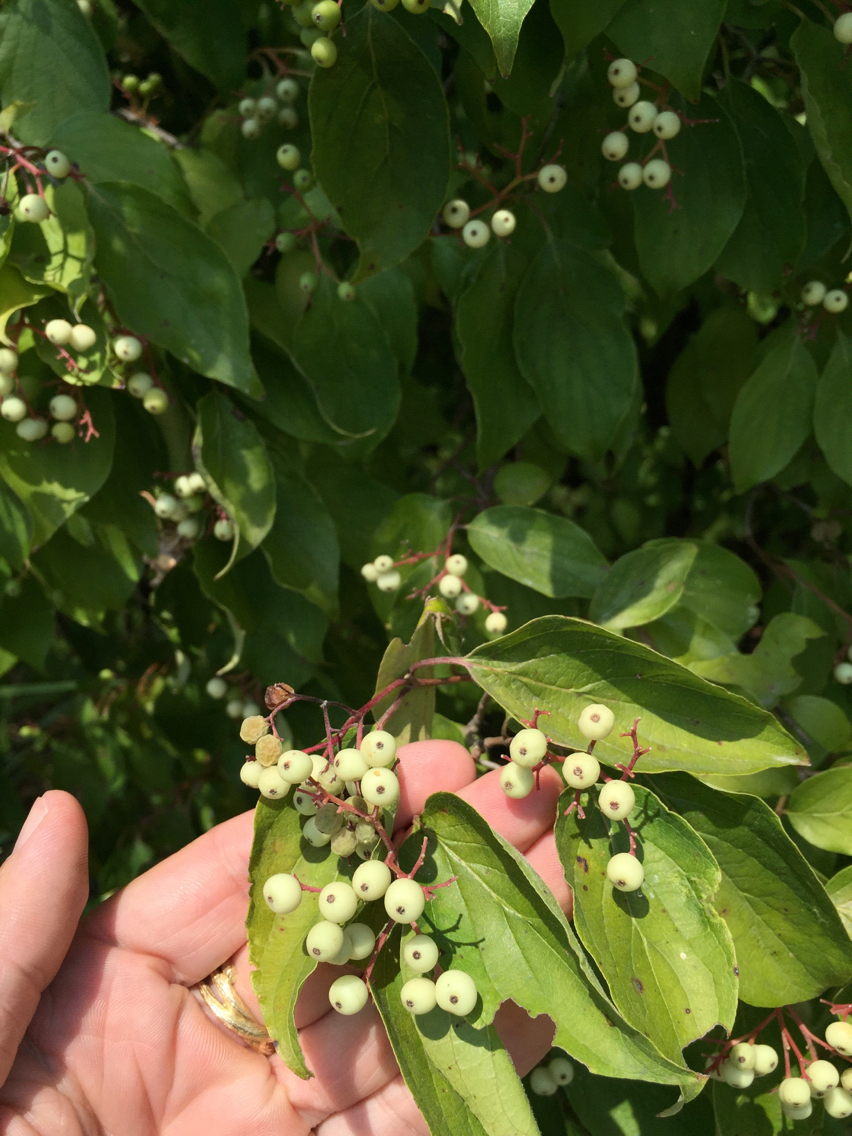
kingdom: Plantae
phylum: Tracheophyta
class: Magnoliopsida
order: Cornales
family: Cornaceae
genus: Cornus
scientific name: Cornus drummondii
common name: Rough-leaf dogwood
